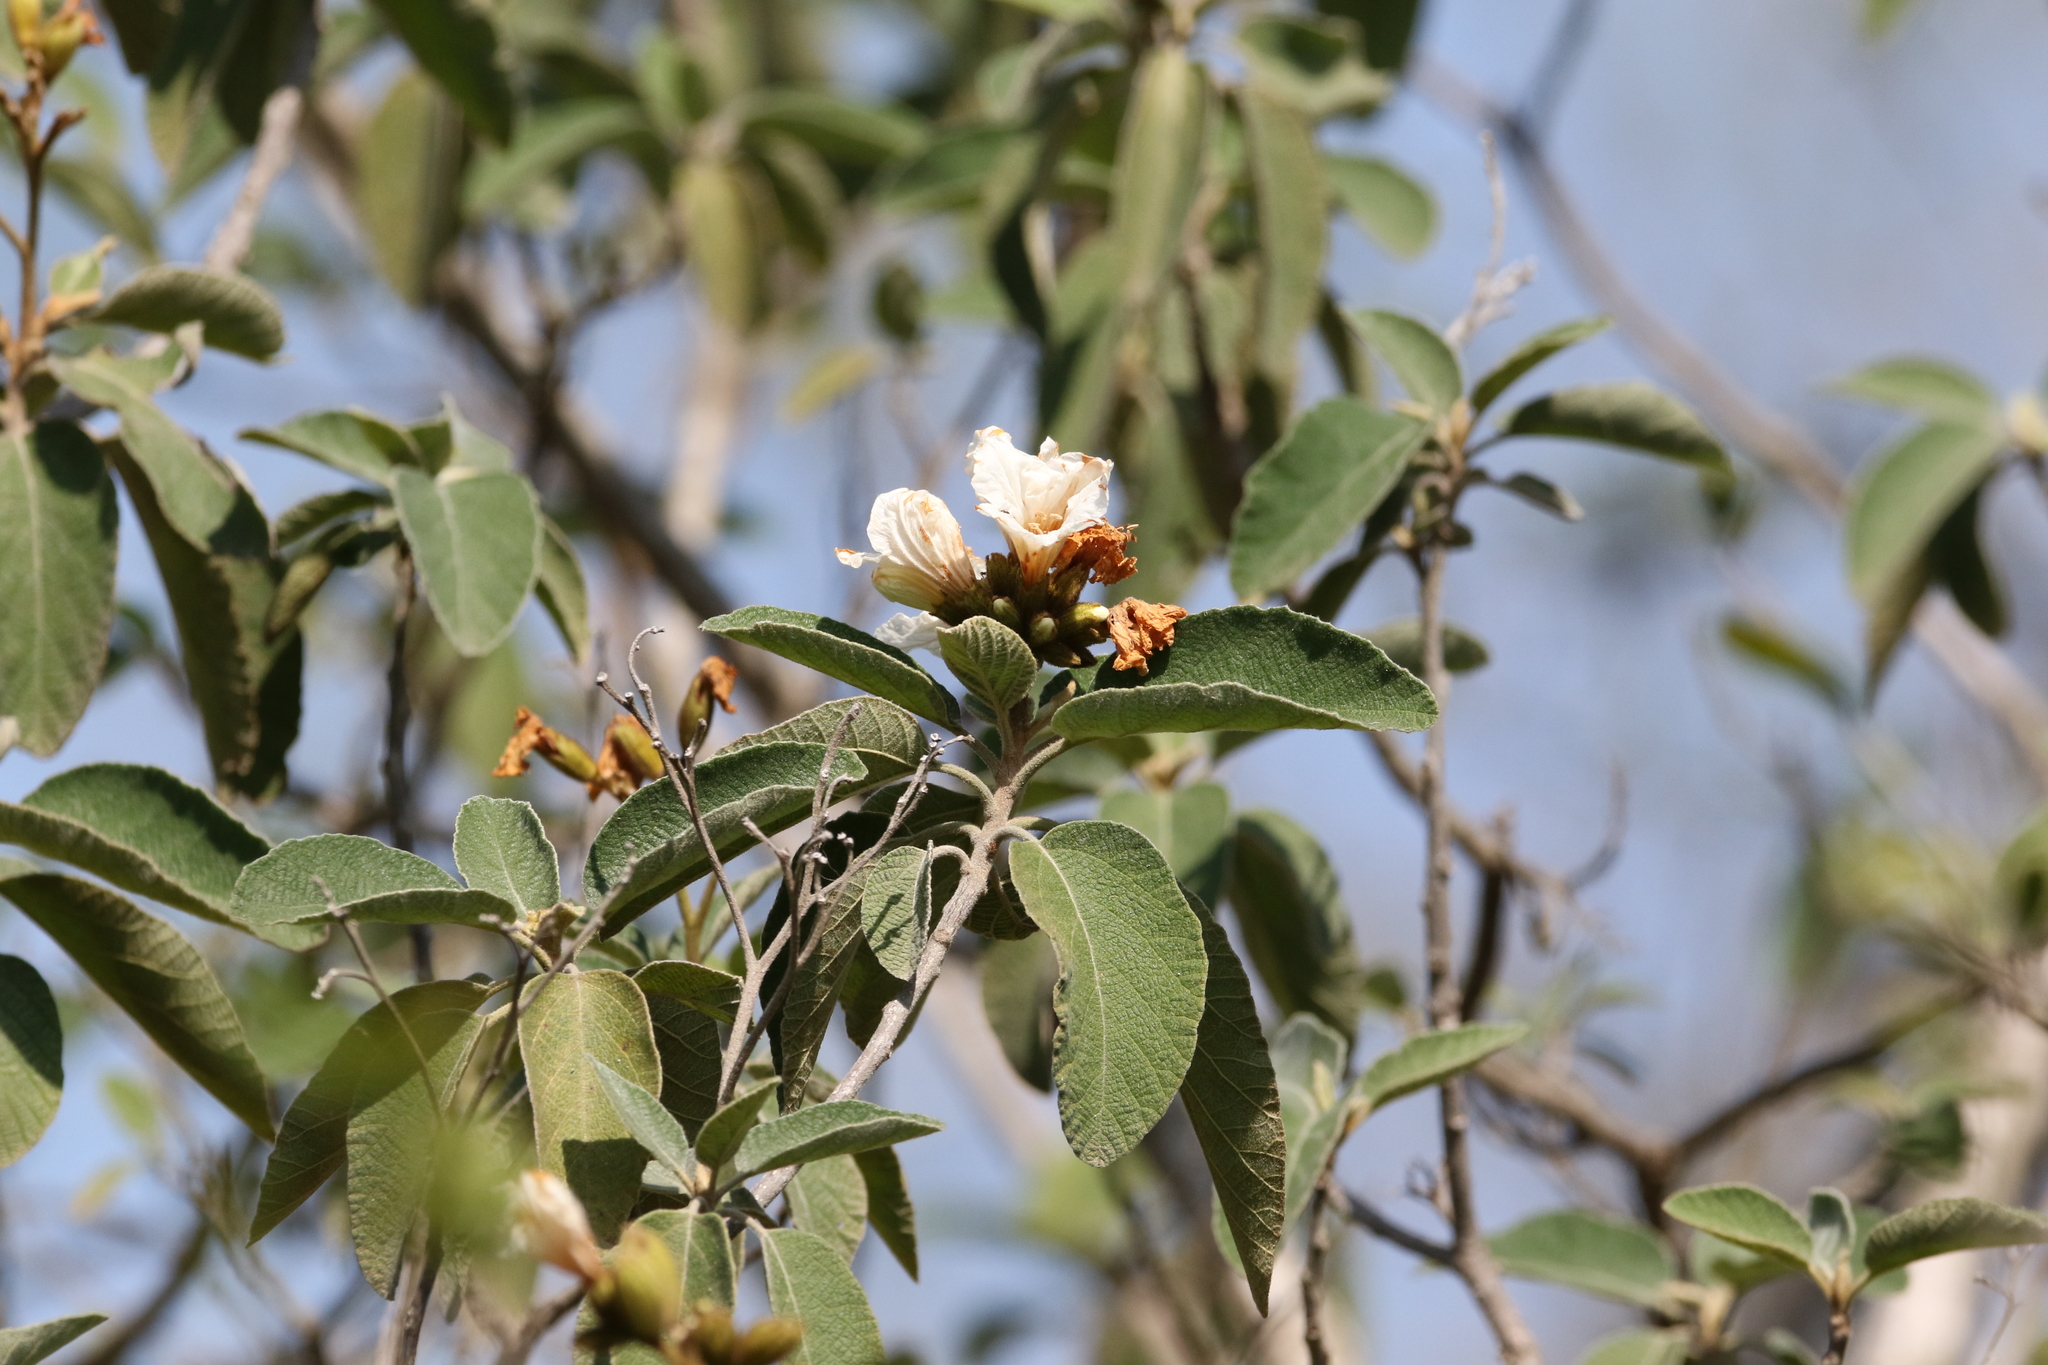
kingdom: Plantae
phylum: Tracheophyta
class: Magnoliopsida
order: Boraginales
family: Cordiaceae
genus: Cordia
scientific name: Cordia boissieri
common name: Mexican-olive
